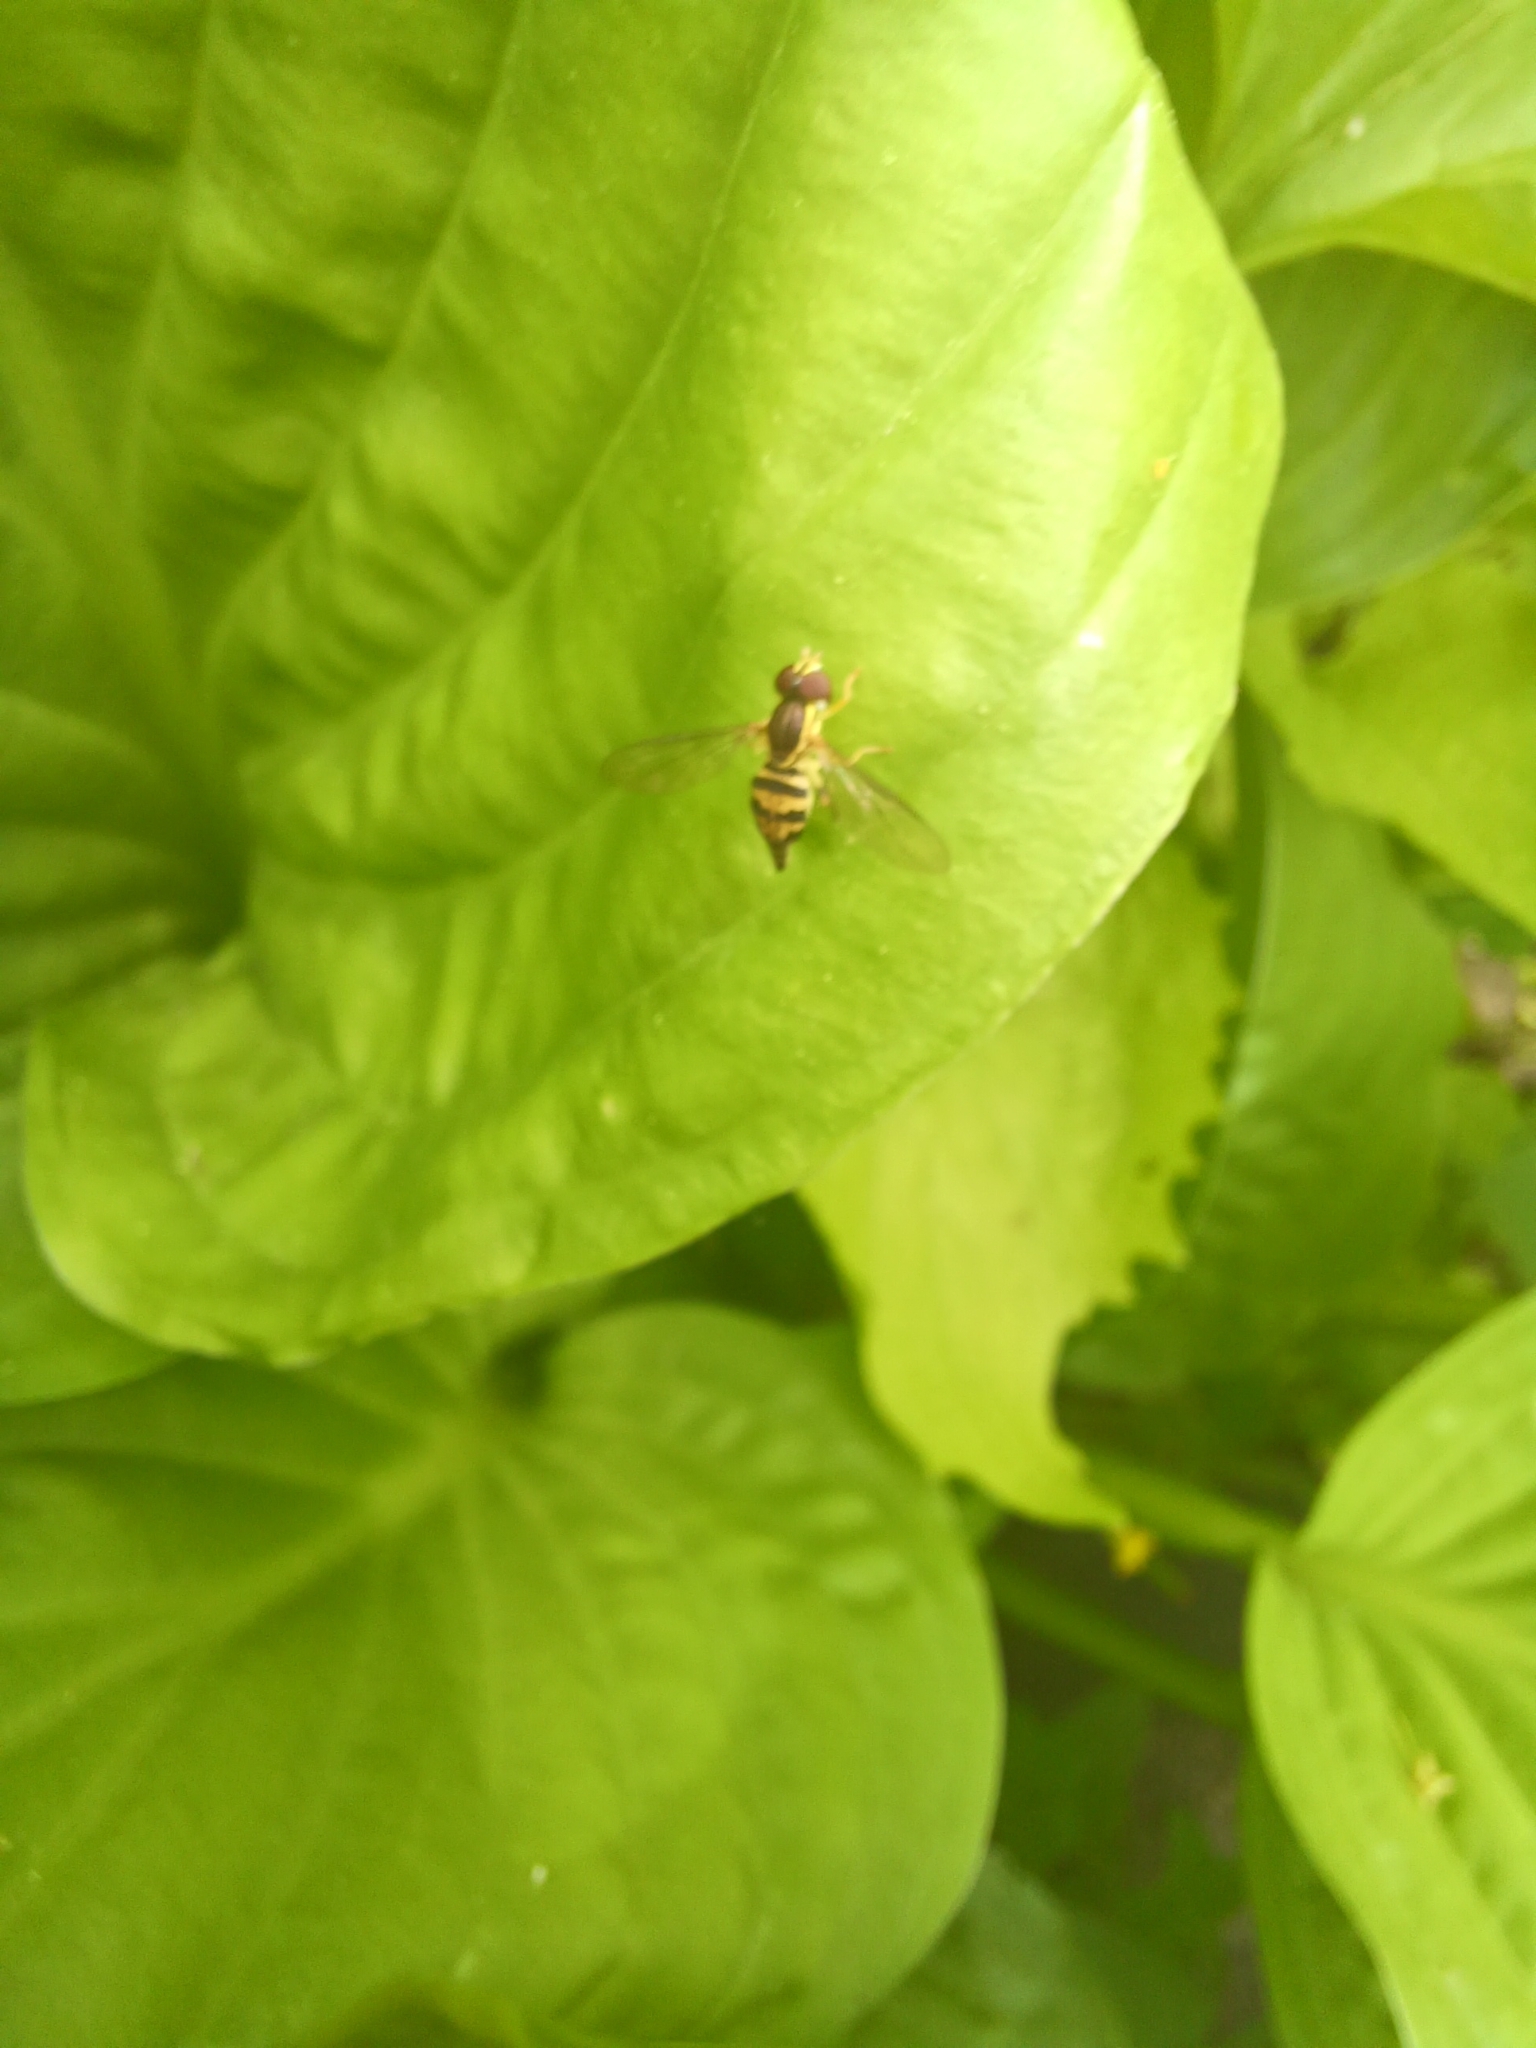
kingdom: Animalia
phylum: Arthropoda
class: Insecta
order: Diptera
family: Syrphidae
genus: Toxomerus
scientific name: Toxomerus geminatus
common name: Eastern calligrapher
